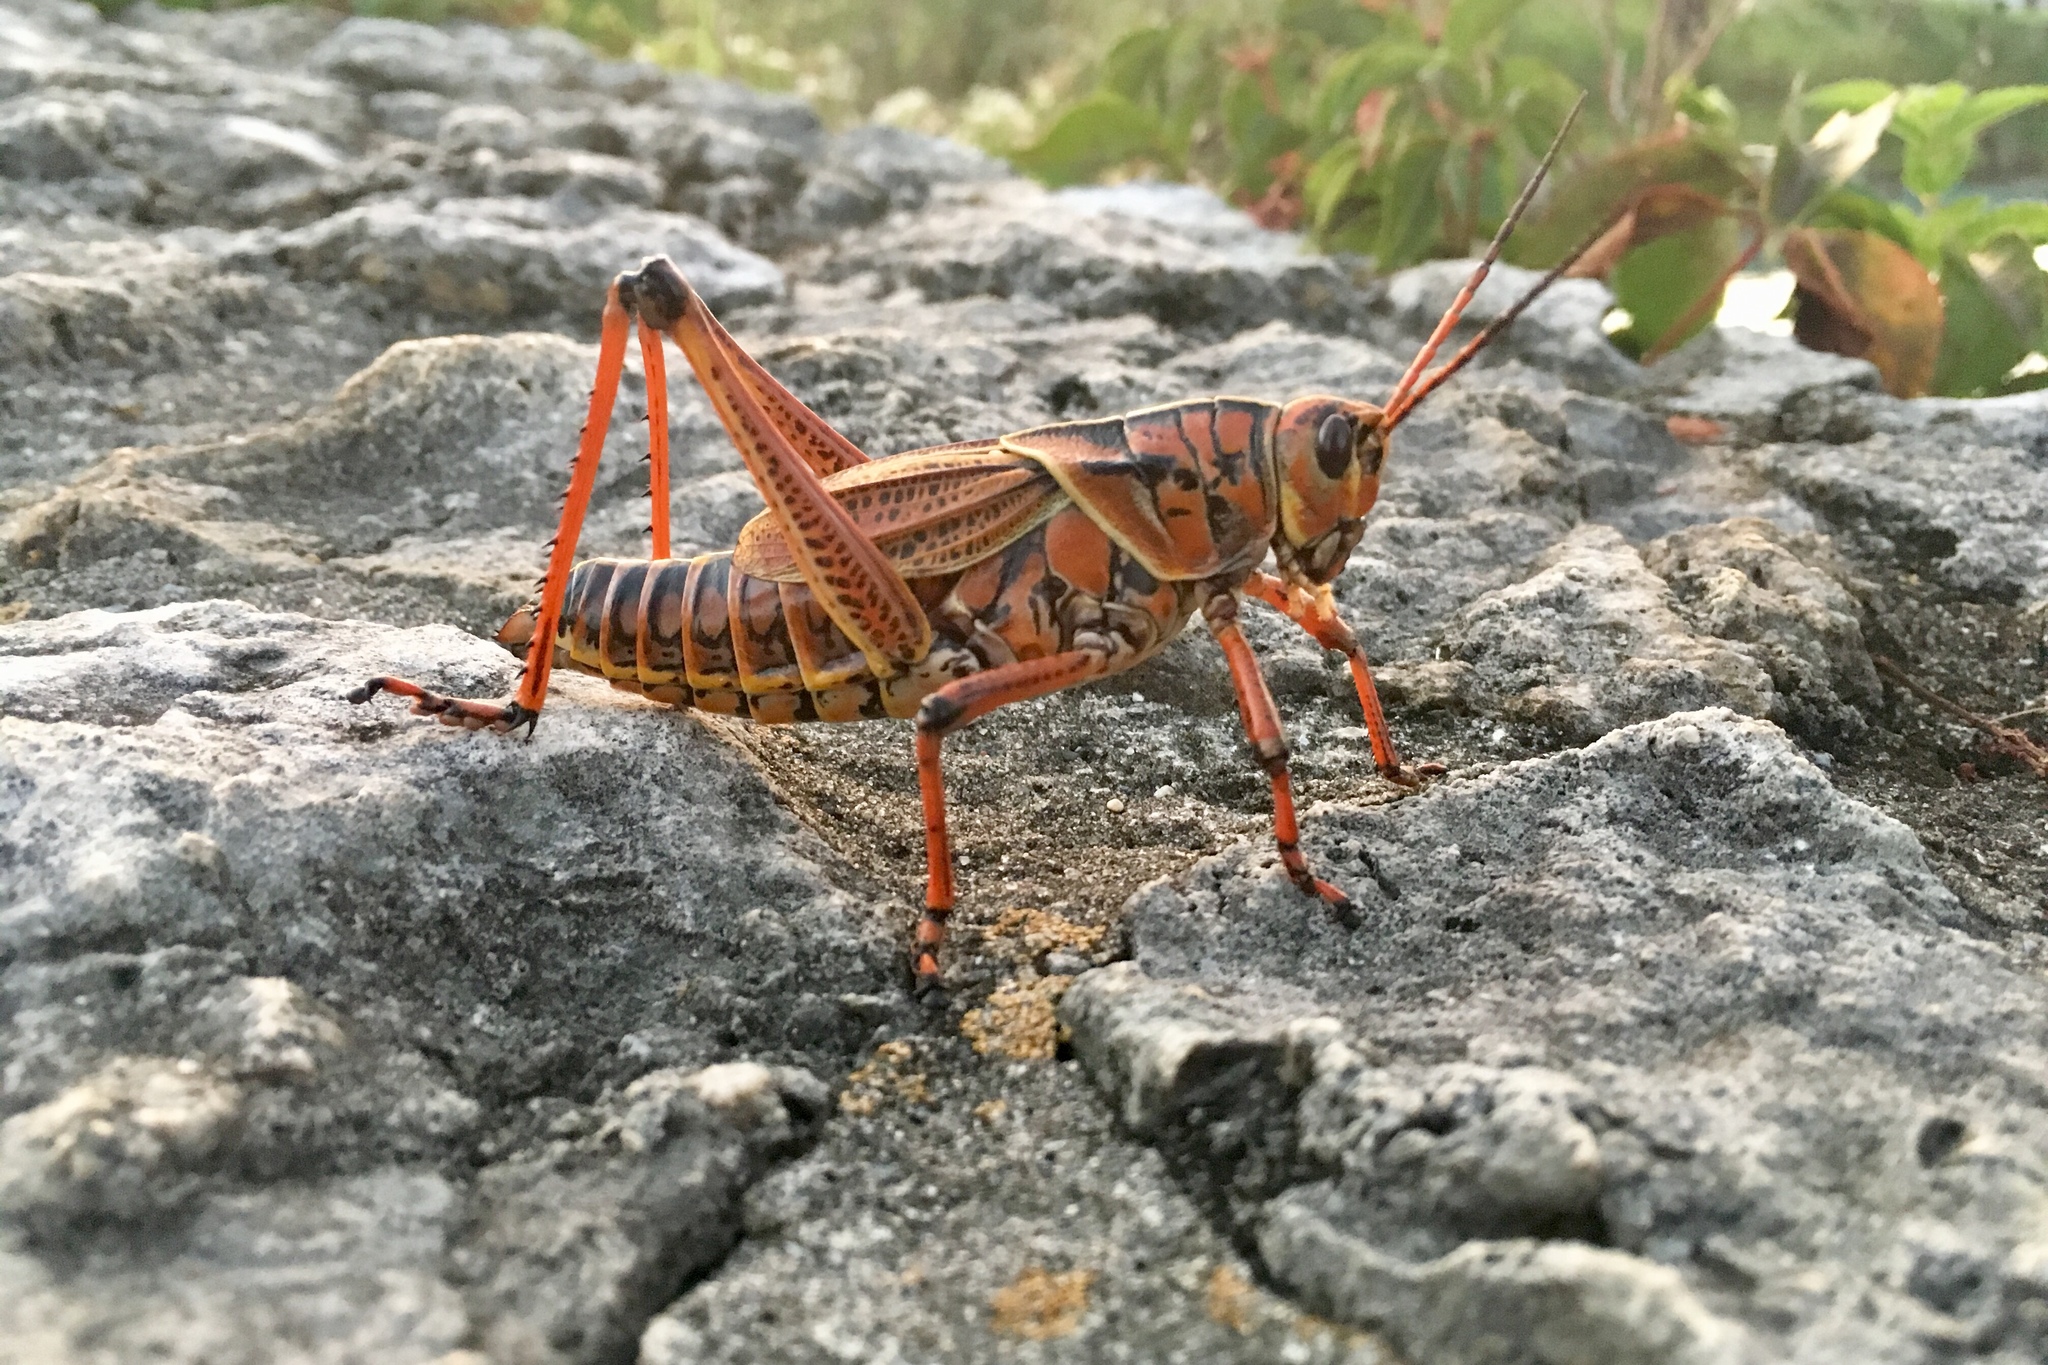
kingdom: Animalia
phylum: Arthropoda
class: Insecta
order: Orthoptera
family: Romaleidae
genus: Romalea
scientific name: Romalea microptera
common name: Eastern lubber grasshopper
